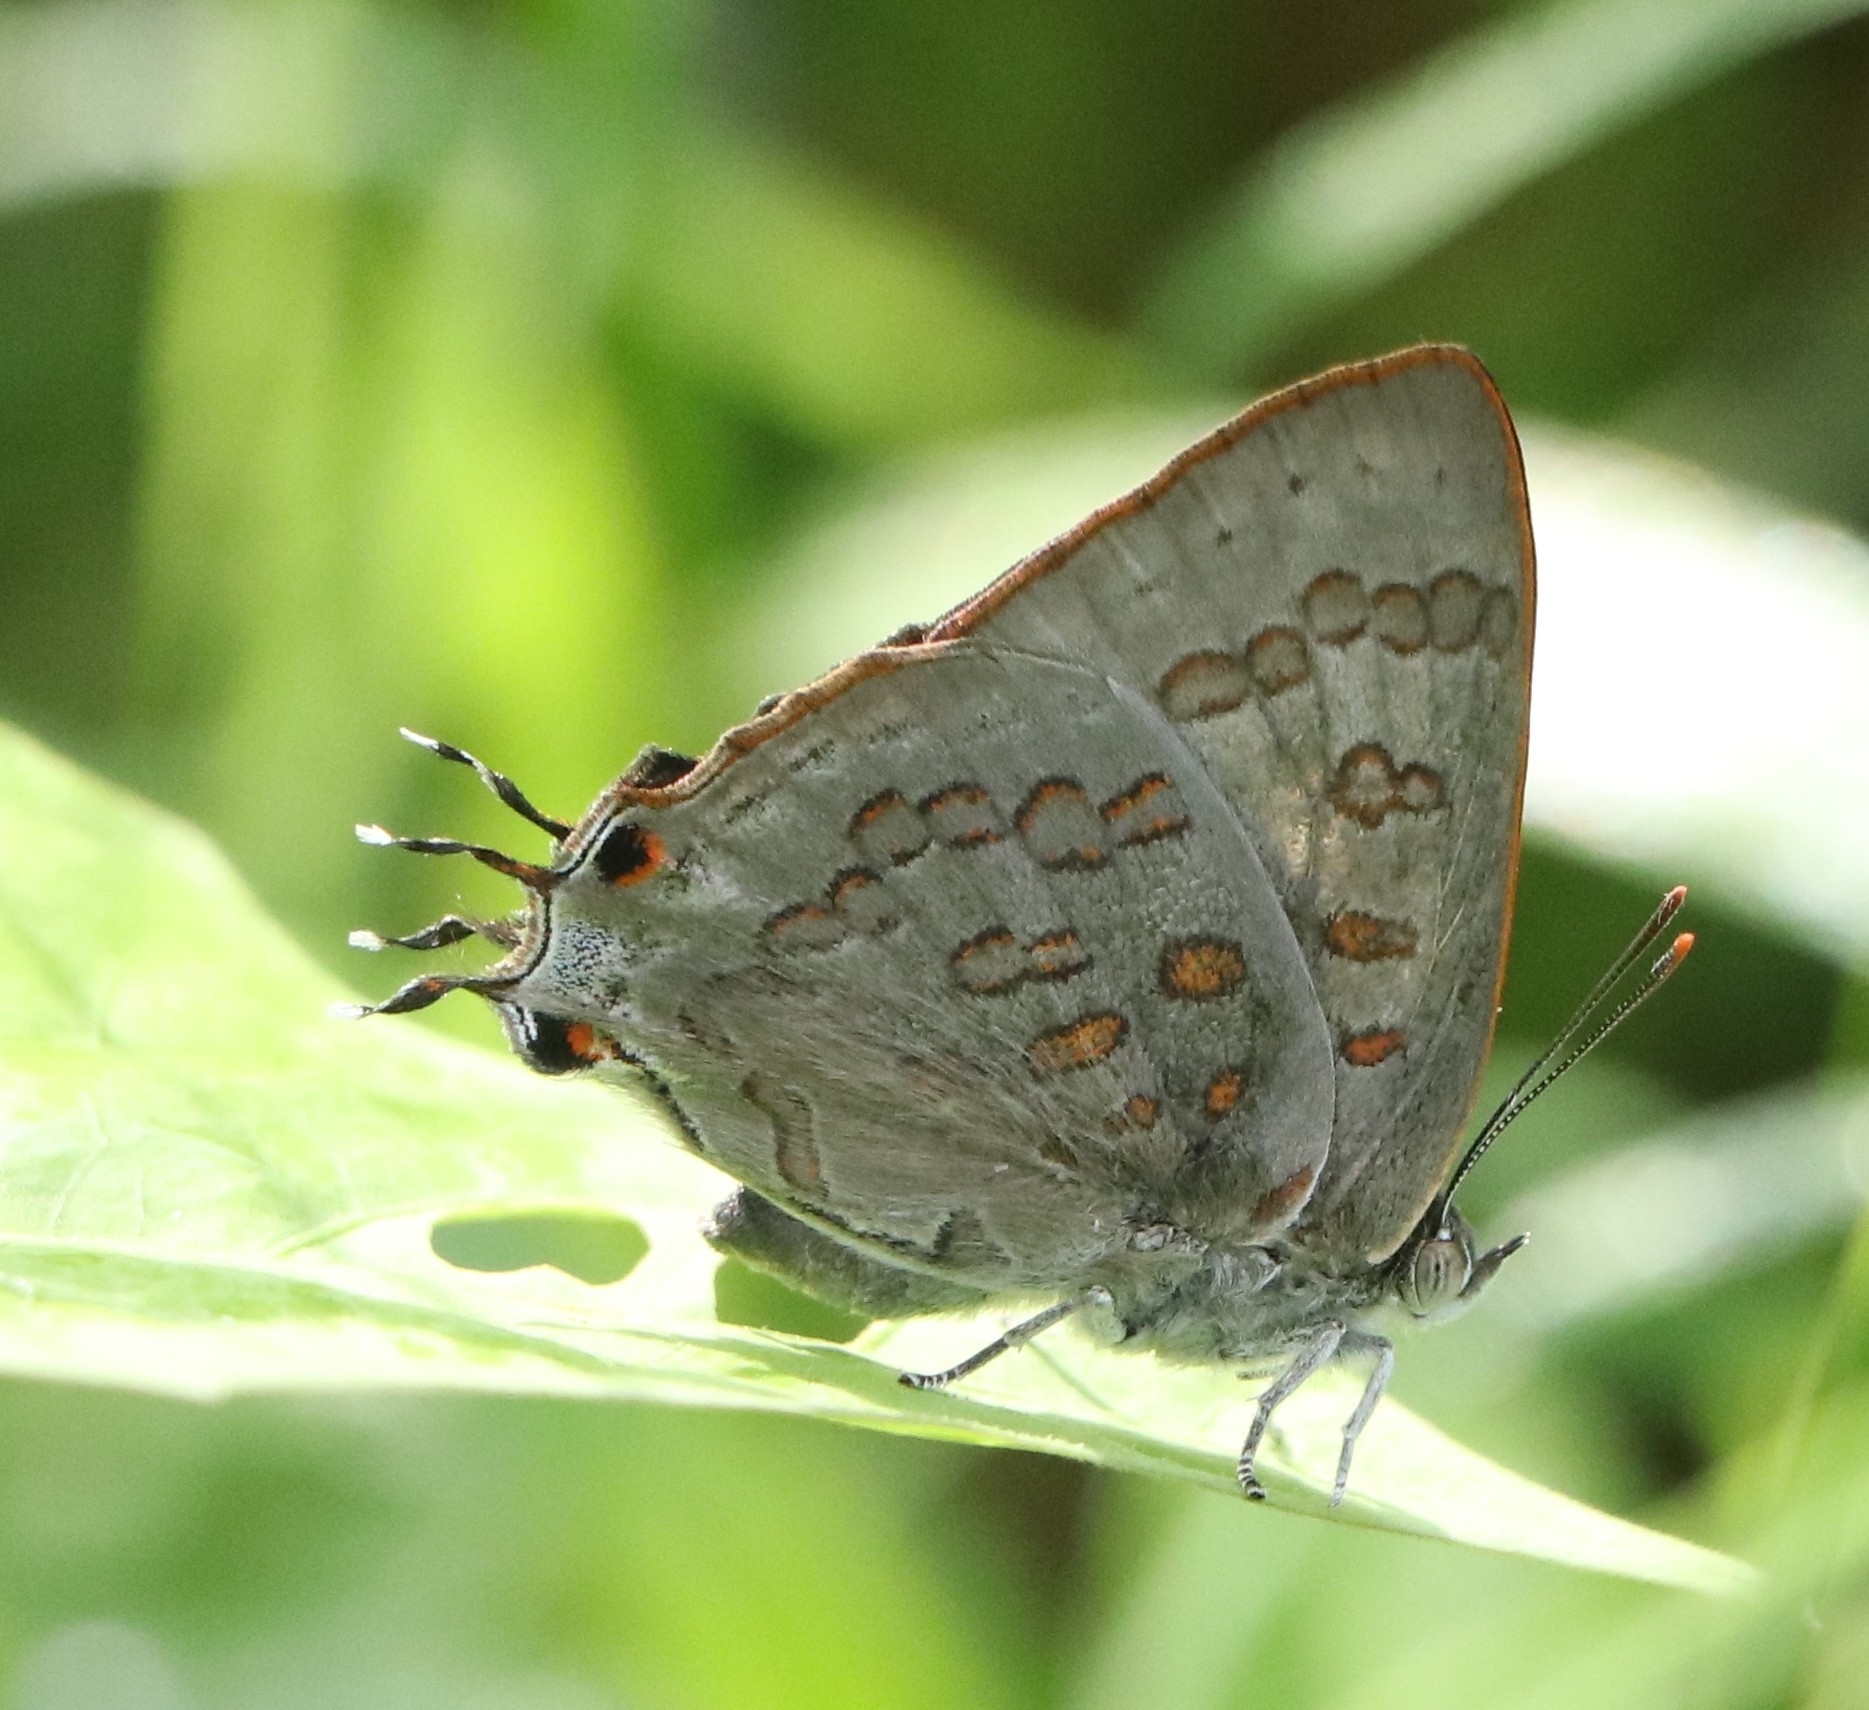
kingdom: Animalia
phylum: Arthropoda
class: Insecta
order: Lepidoptera
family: Lycaenidae
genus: Zesius
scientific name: Zesius chrysomallus
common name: Redspot
